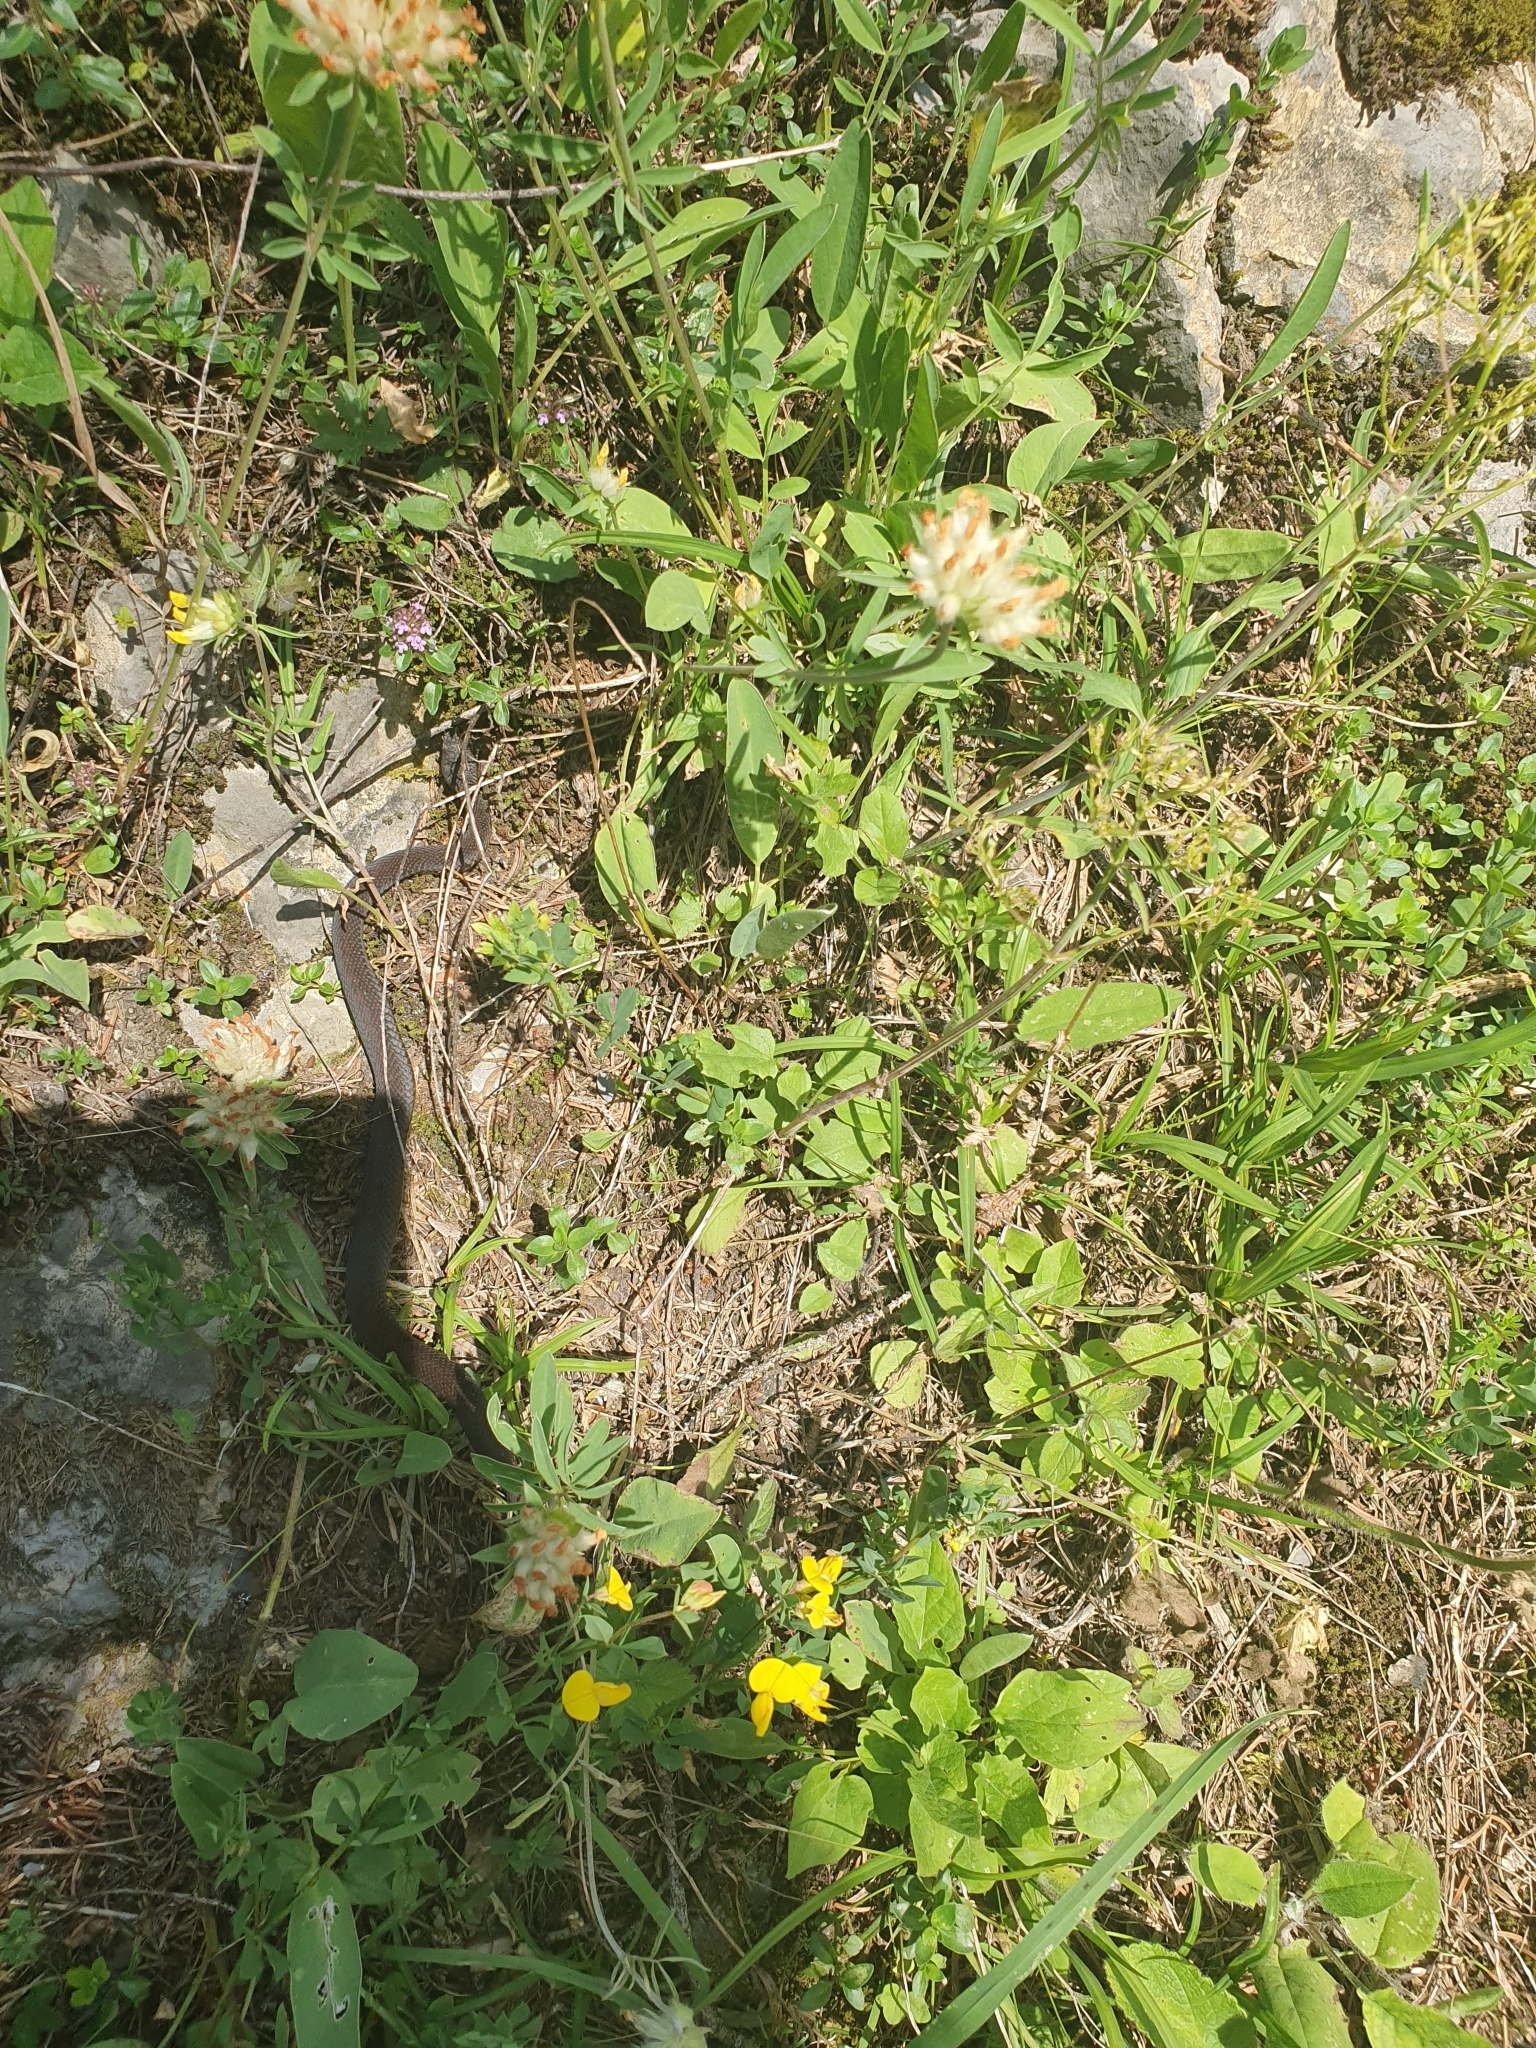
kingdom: Animalia
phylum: Chordata
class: Squamata
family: Colubridae
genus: Zamenis
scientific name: Zamenis longissimus
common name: Aesculapean snake
